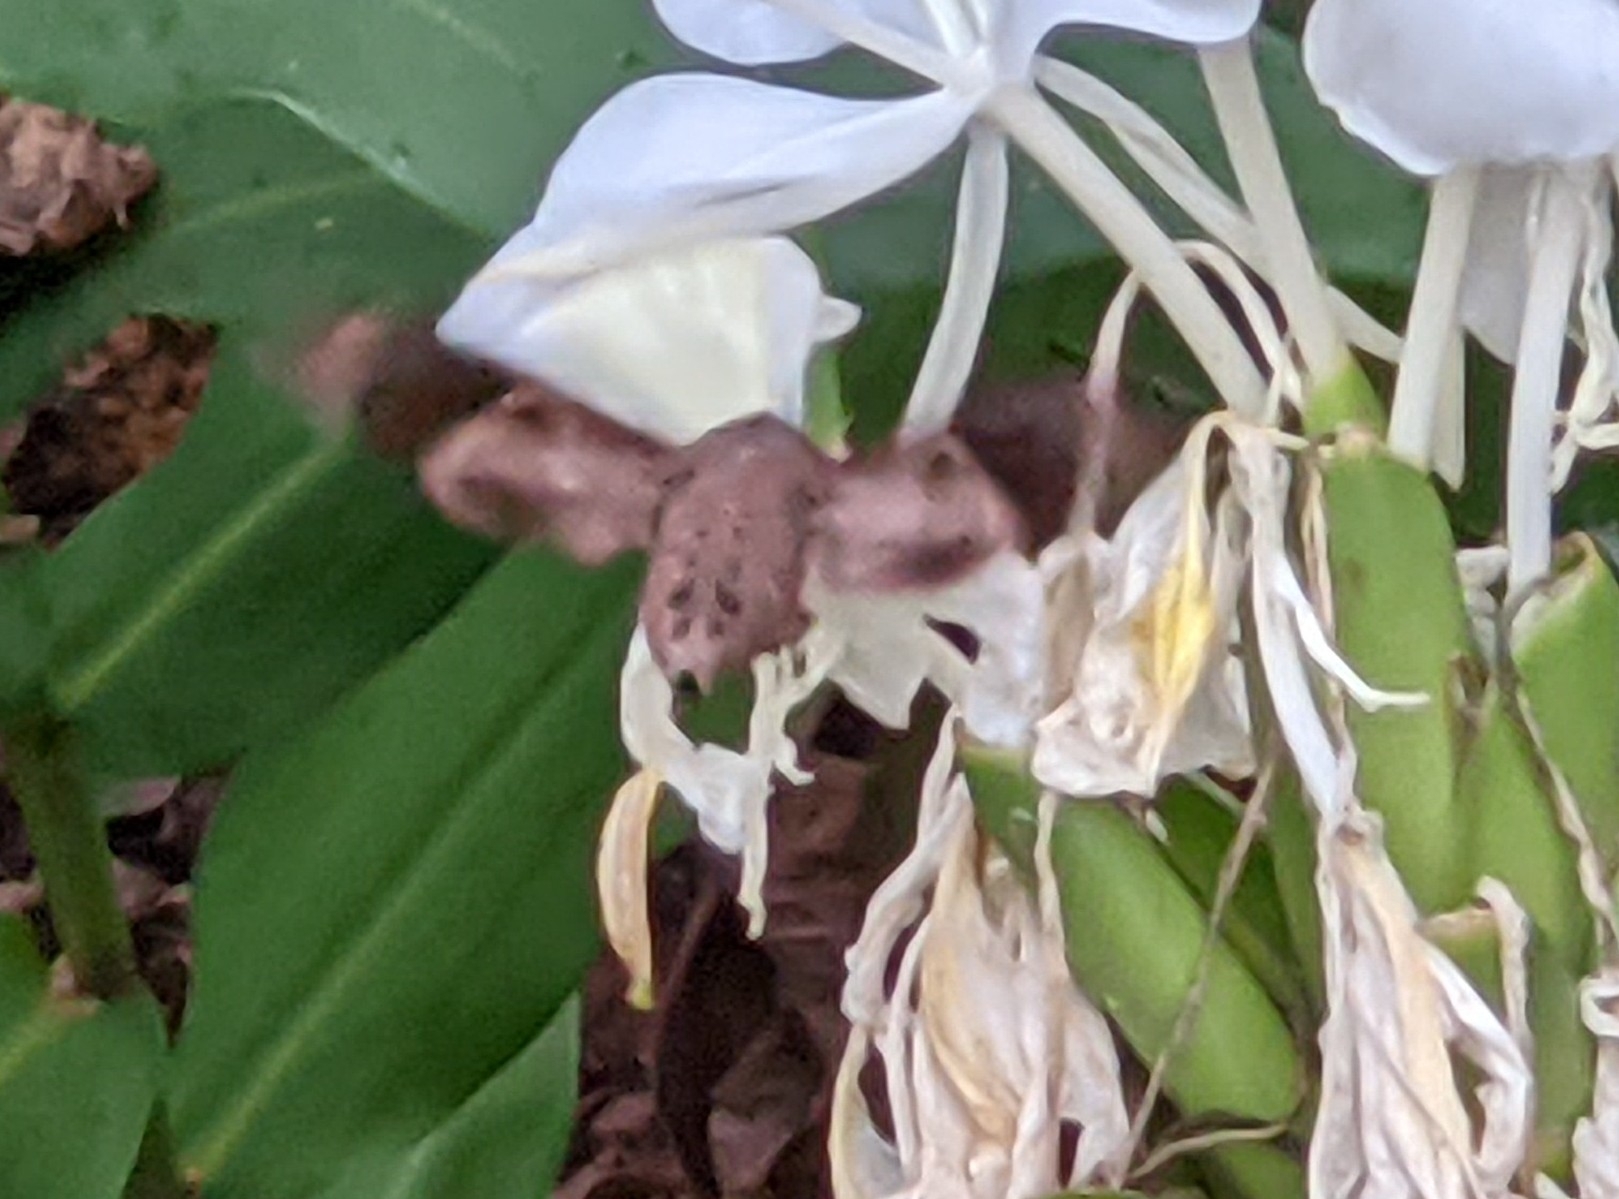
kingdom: Animalia
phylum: Arthropoda
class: Insecta
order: Lepidoptera
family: Sphingidae
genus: Enyo
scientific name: Enyo lugubris
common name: Mournful sphinx
